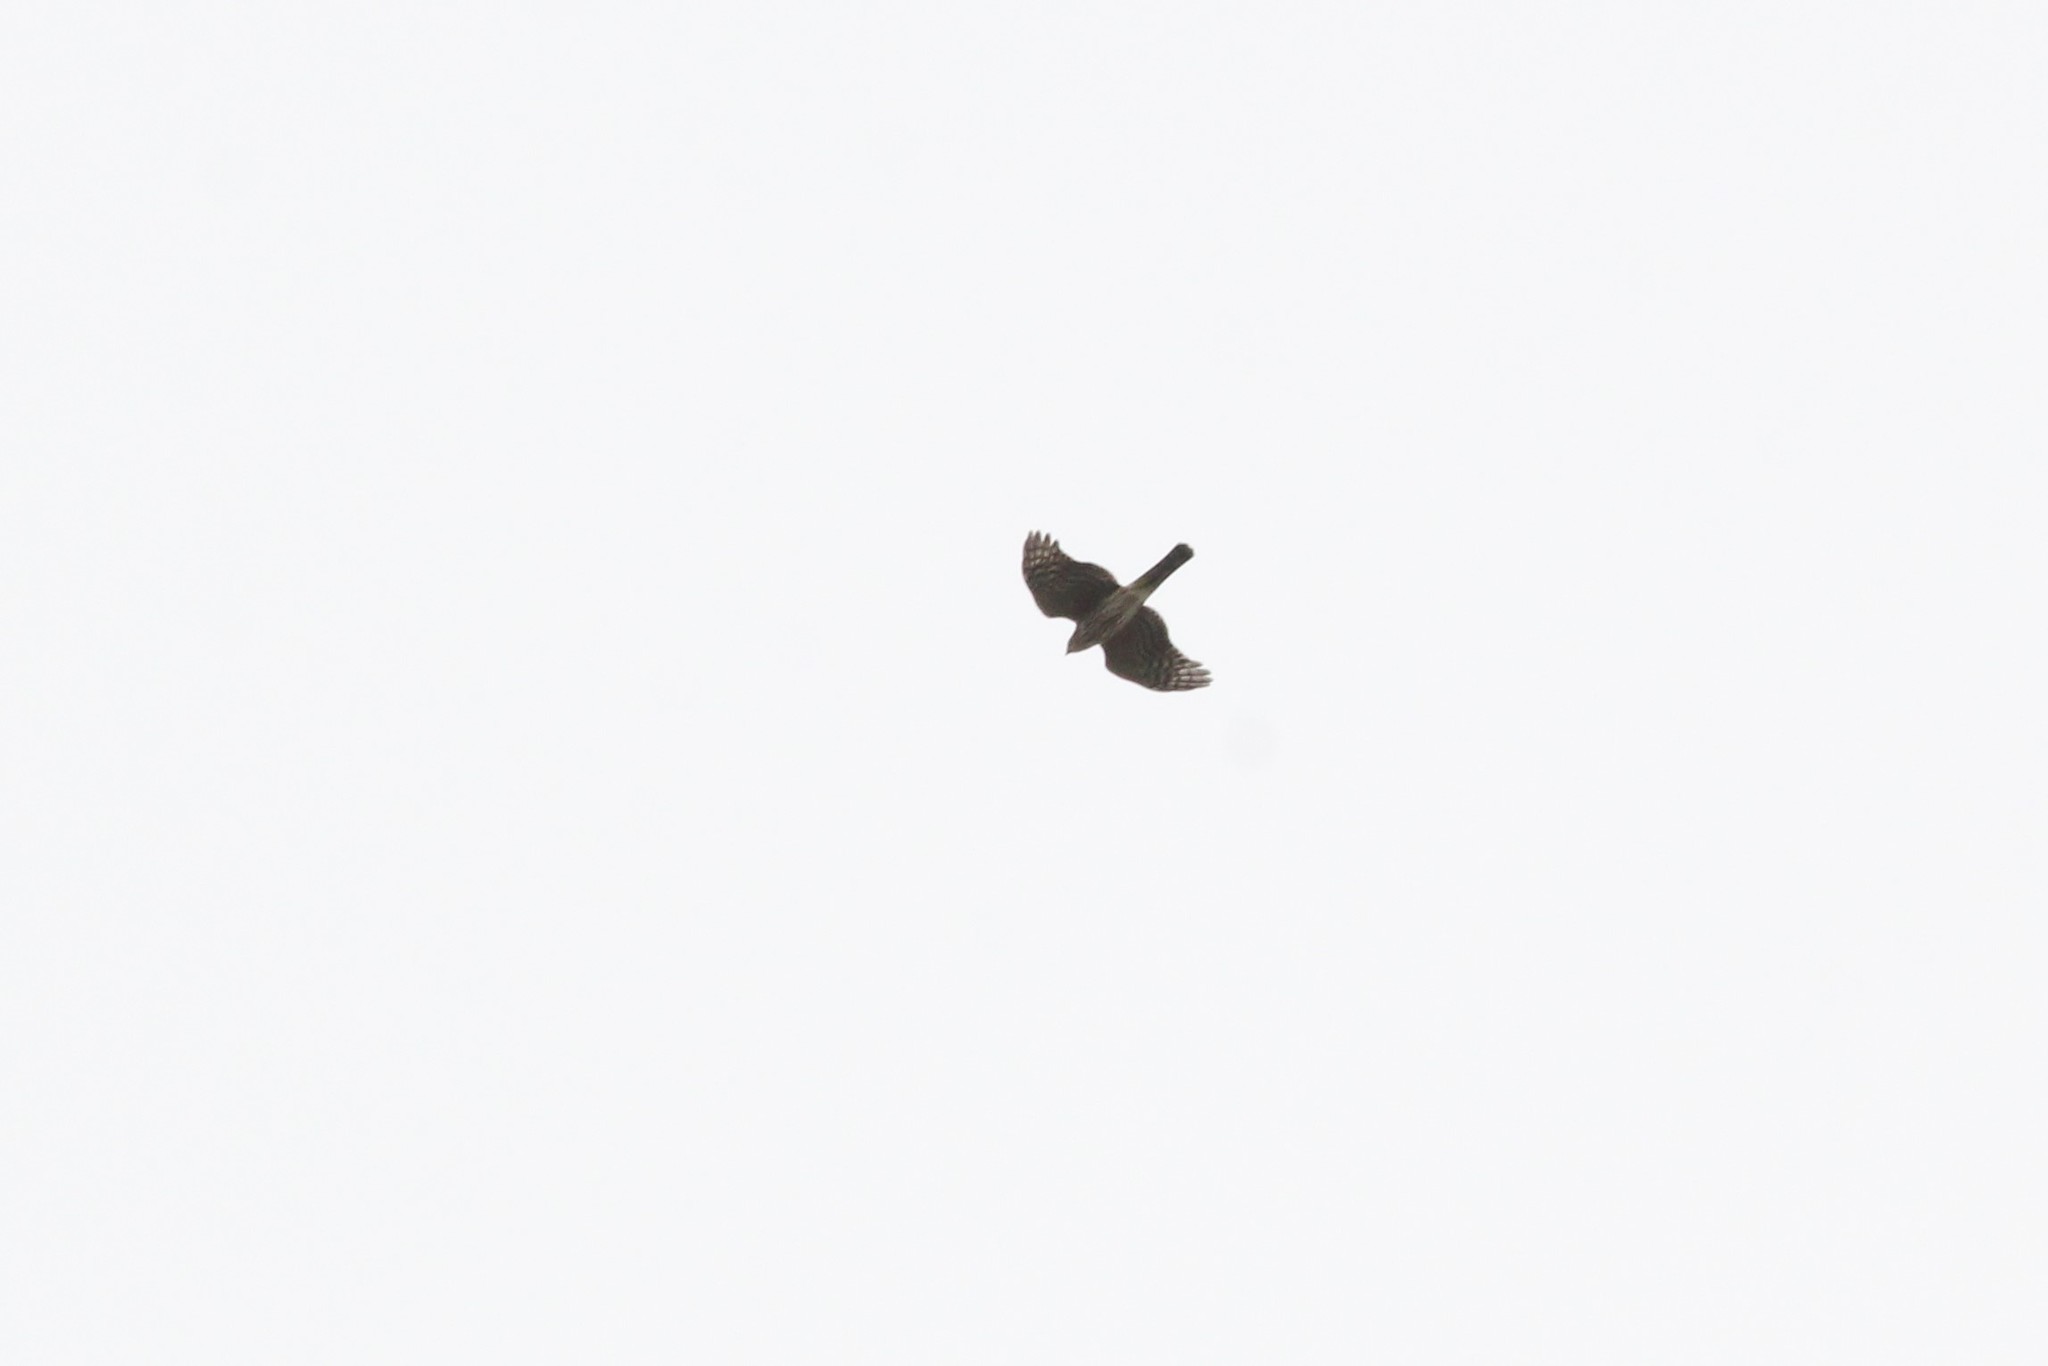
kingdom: Animalia
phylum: Chordata
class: Aves
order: Accipitriformes
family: Accipitridae
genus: Accipiter
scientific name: Accipiter cooperii
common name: Cooper's hawk
